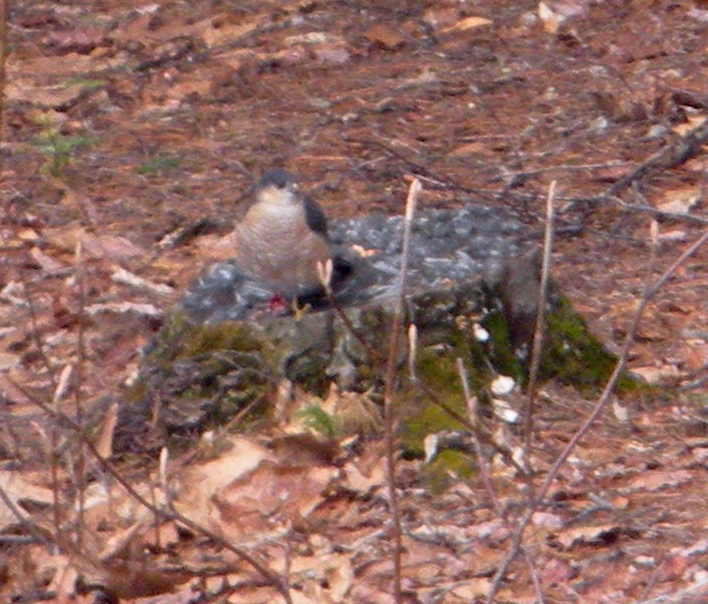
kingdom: Animalia
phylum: Chordata
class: Aves
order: Accipitriformes
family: Accipitridae
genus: Accipiter
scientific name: Accipiter striatus
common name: Sharp-shinned hawk
